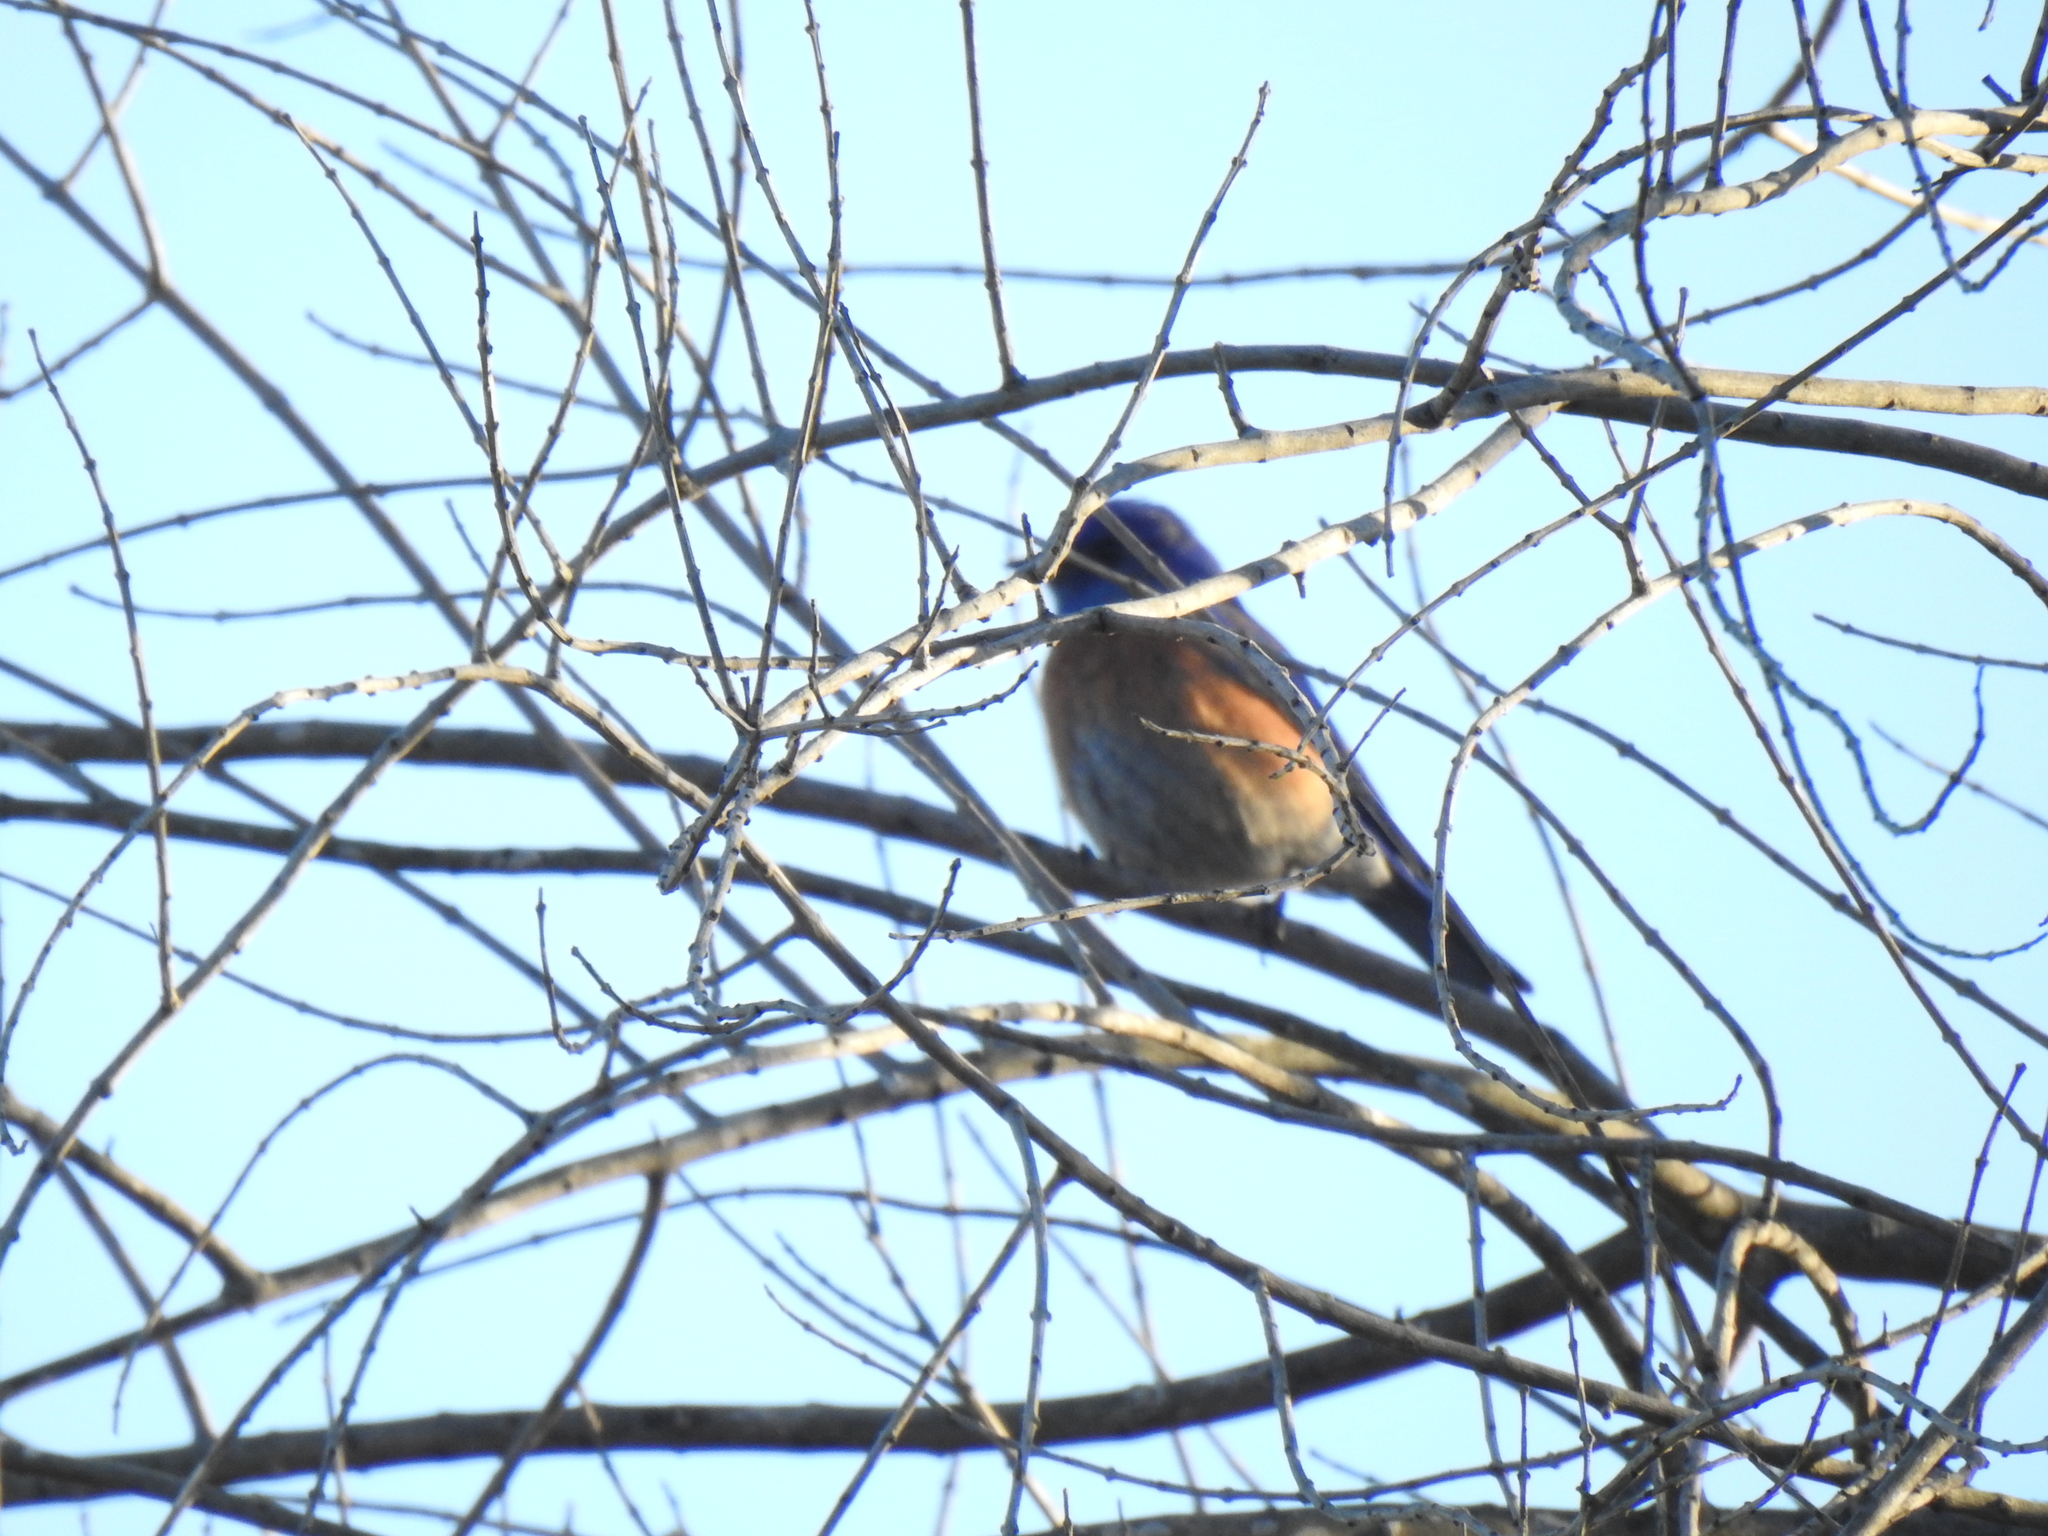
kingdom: Animalia
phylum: Chordata
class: Aves
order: Passeriformes
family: Turdidae
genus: Sialia
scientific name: Sialia mexicana
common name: Western bluebird
